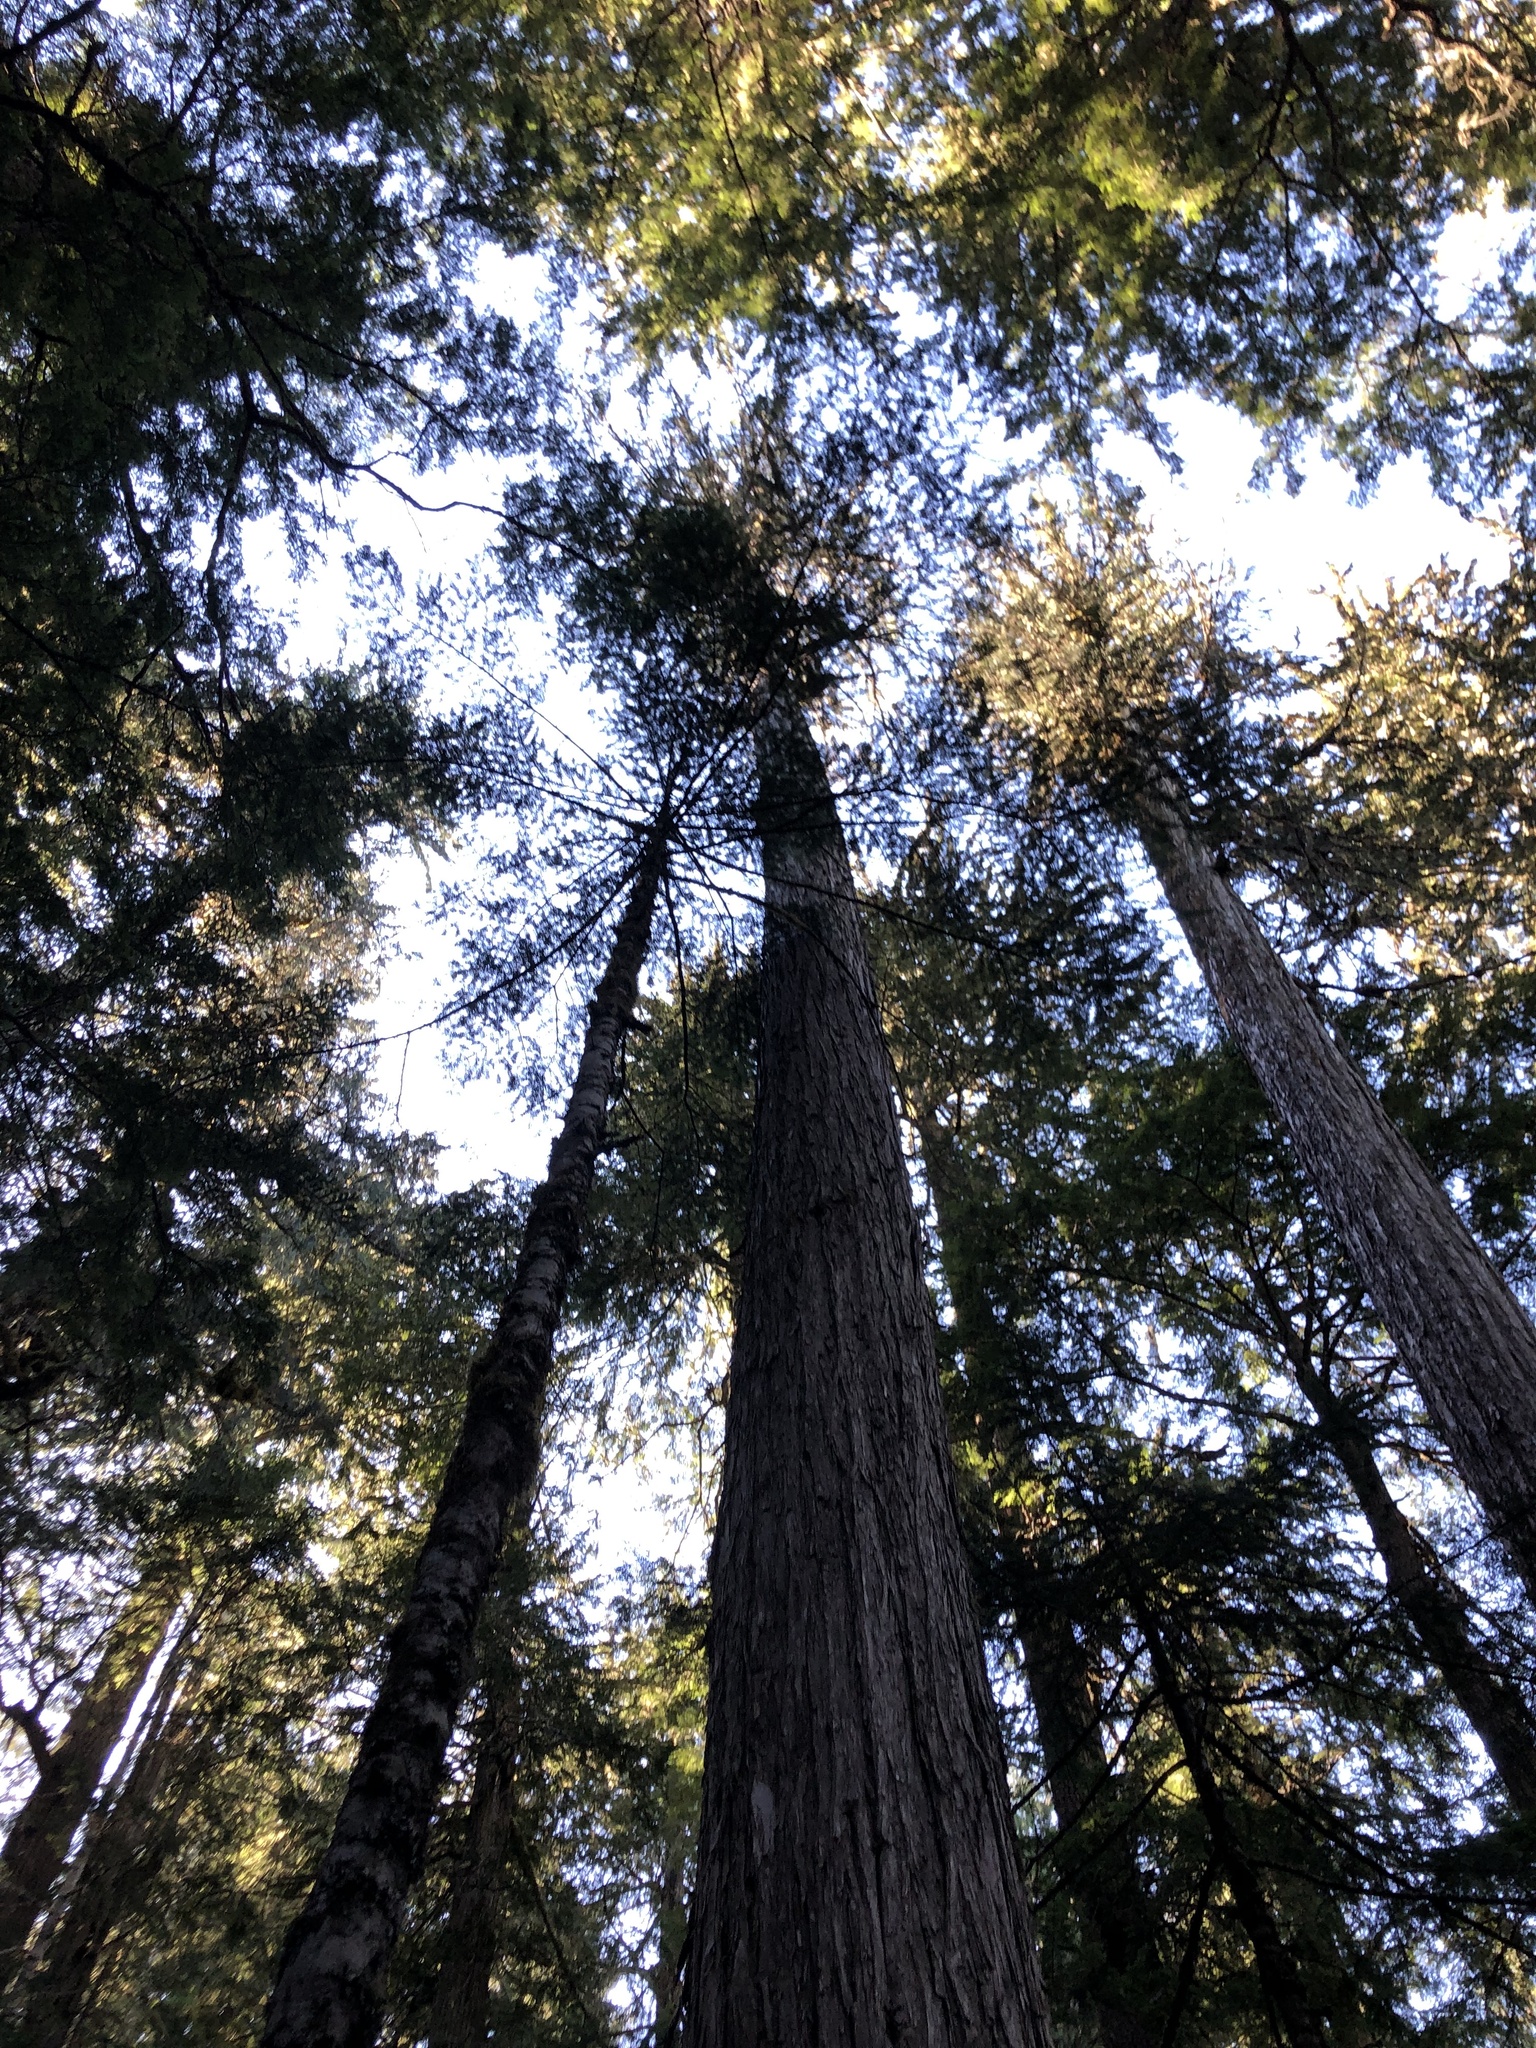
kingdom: Plantae
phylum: Tracheophyta
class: Pinopsida
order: Pinales
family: Cupressaceae
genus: Xanthocyparis
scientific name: Xanthocyparis nootkatensis
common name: Nootka cypress
